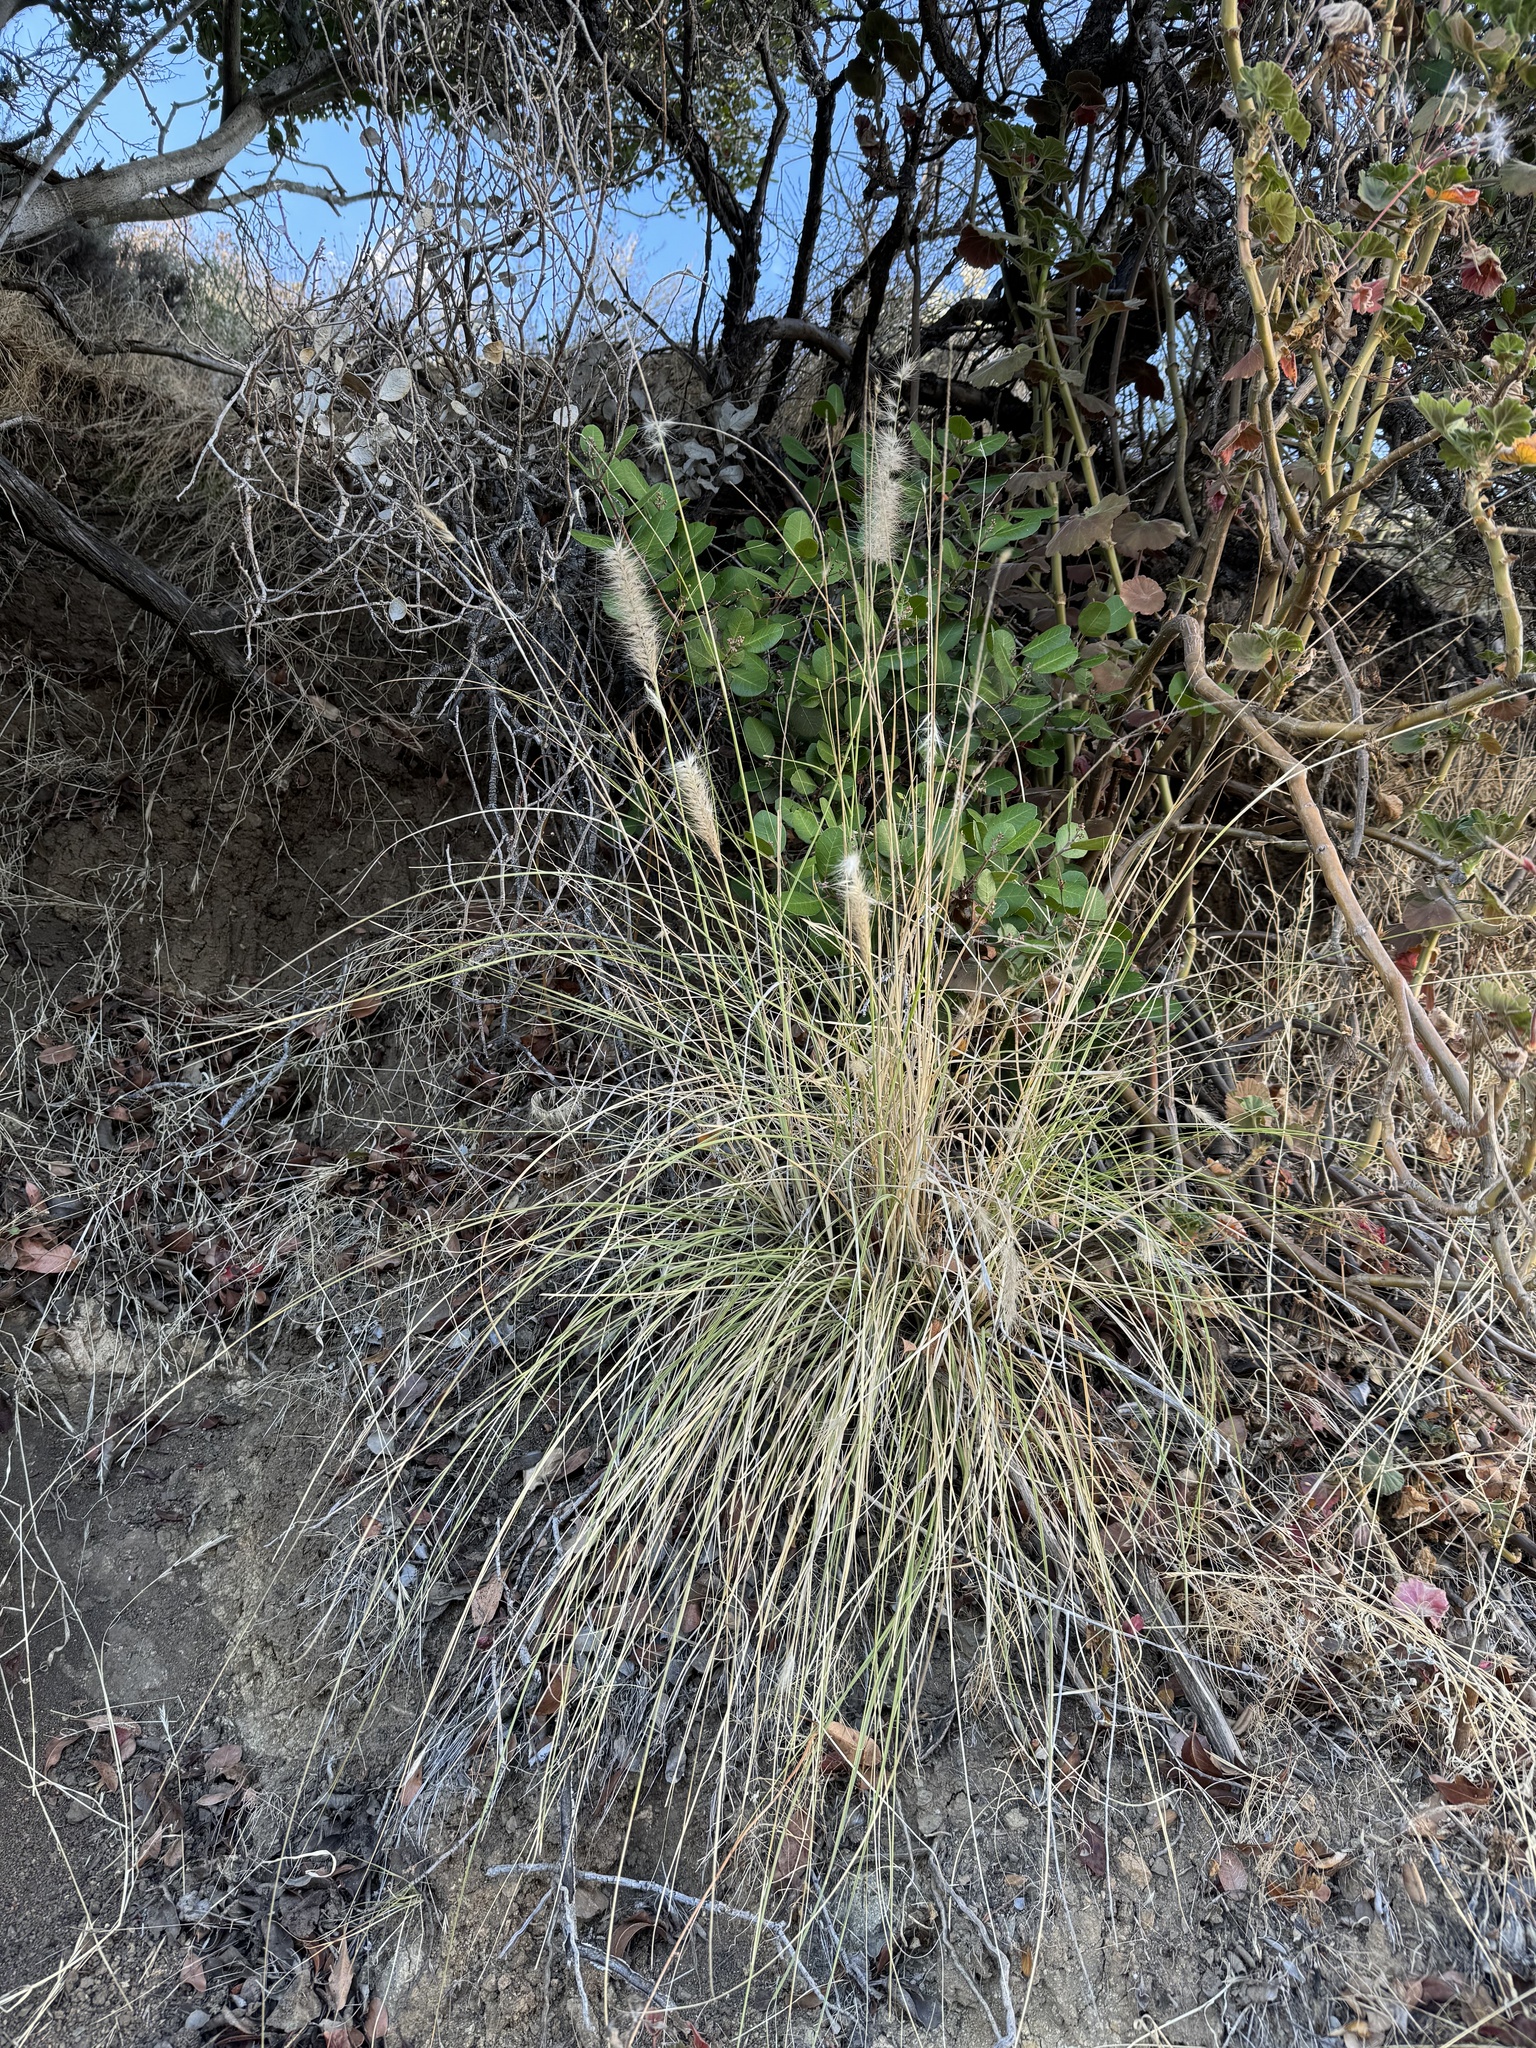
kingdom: Plantae
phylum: Tracheophyta
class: Liliopsida
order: Poales
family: Poaceae
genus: Cenchrus
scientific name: Cenchrus setaceus
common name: Crimson fountaingrass
